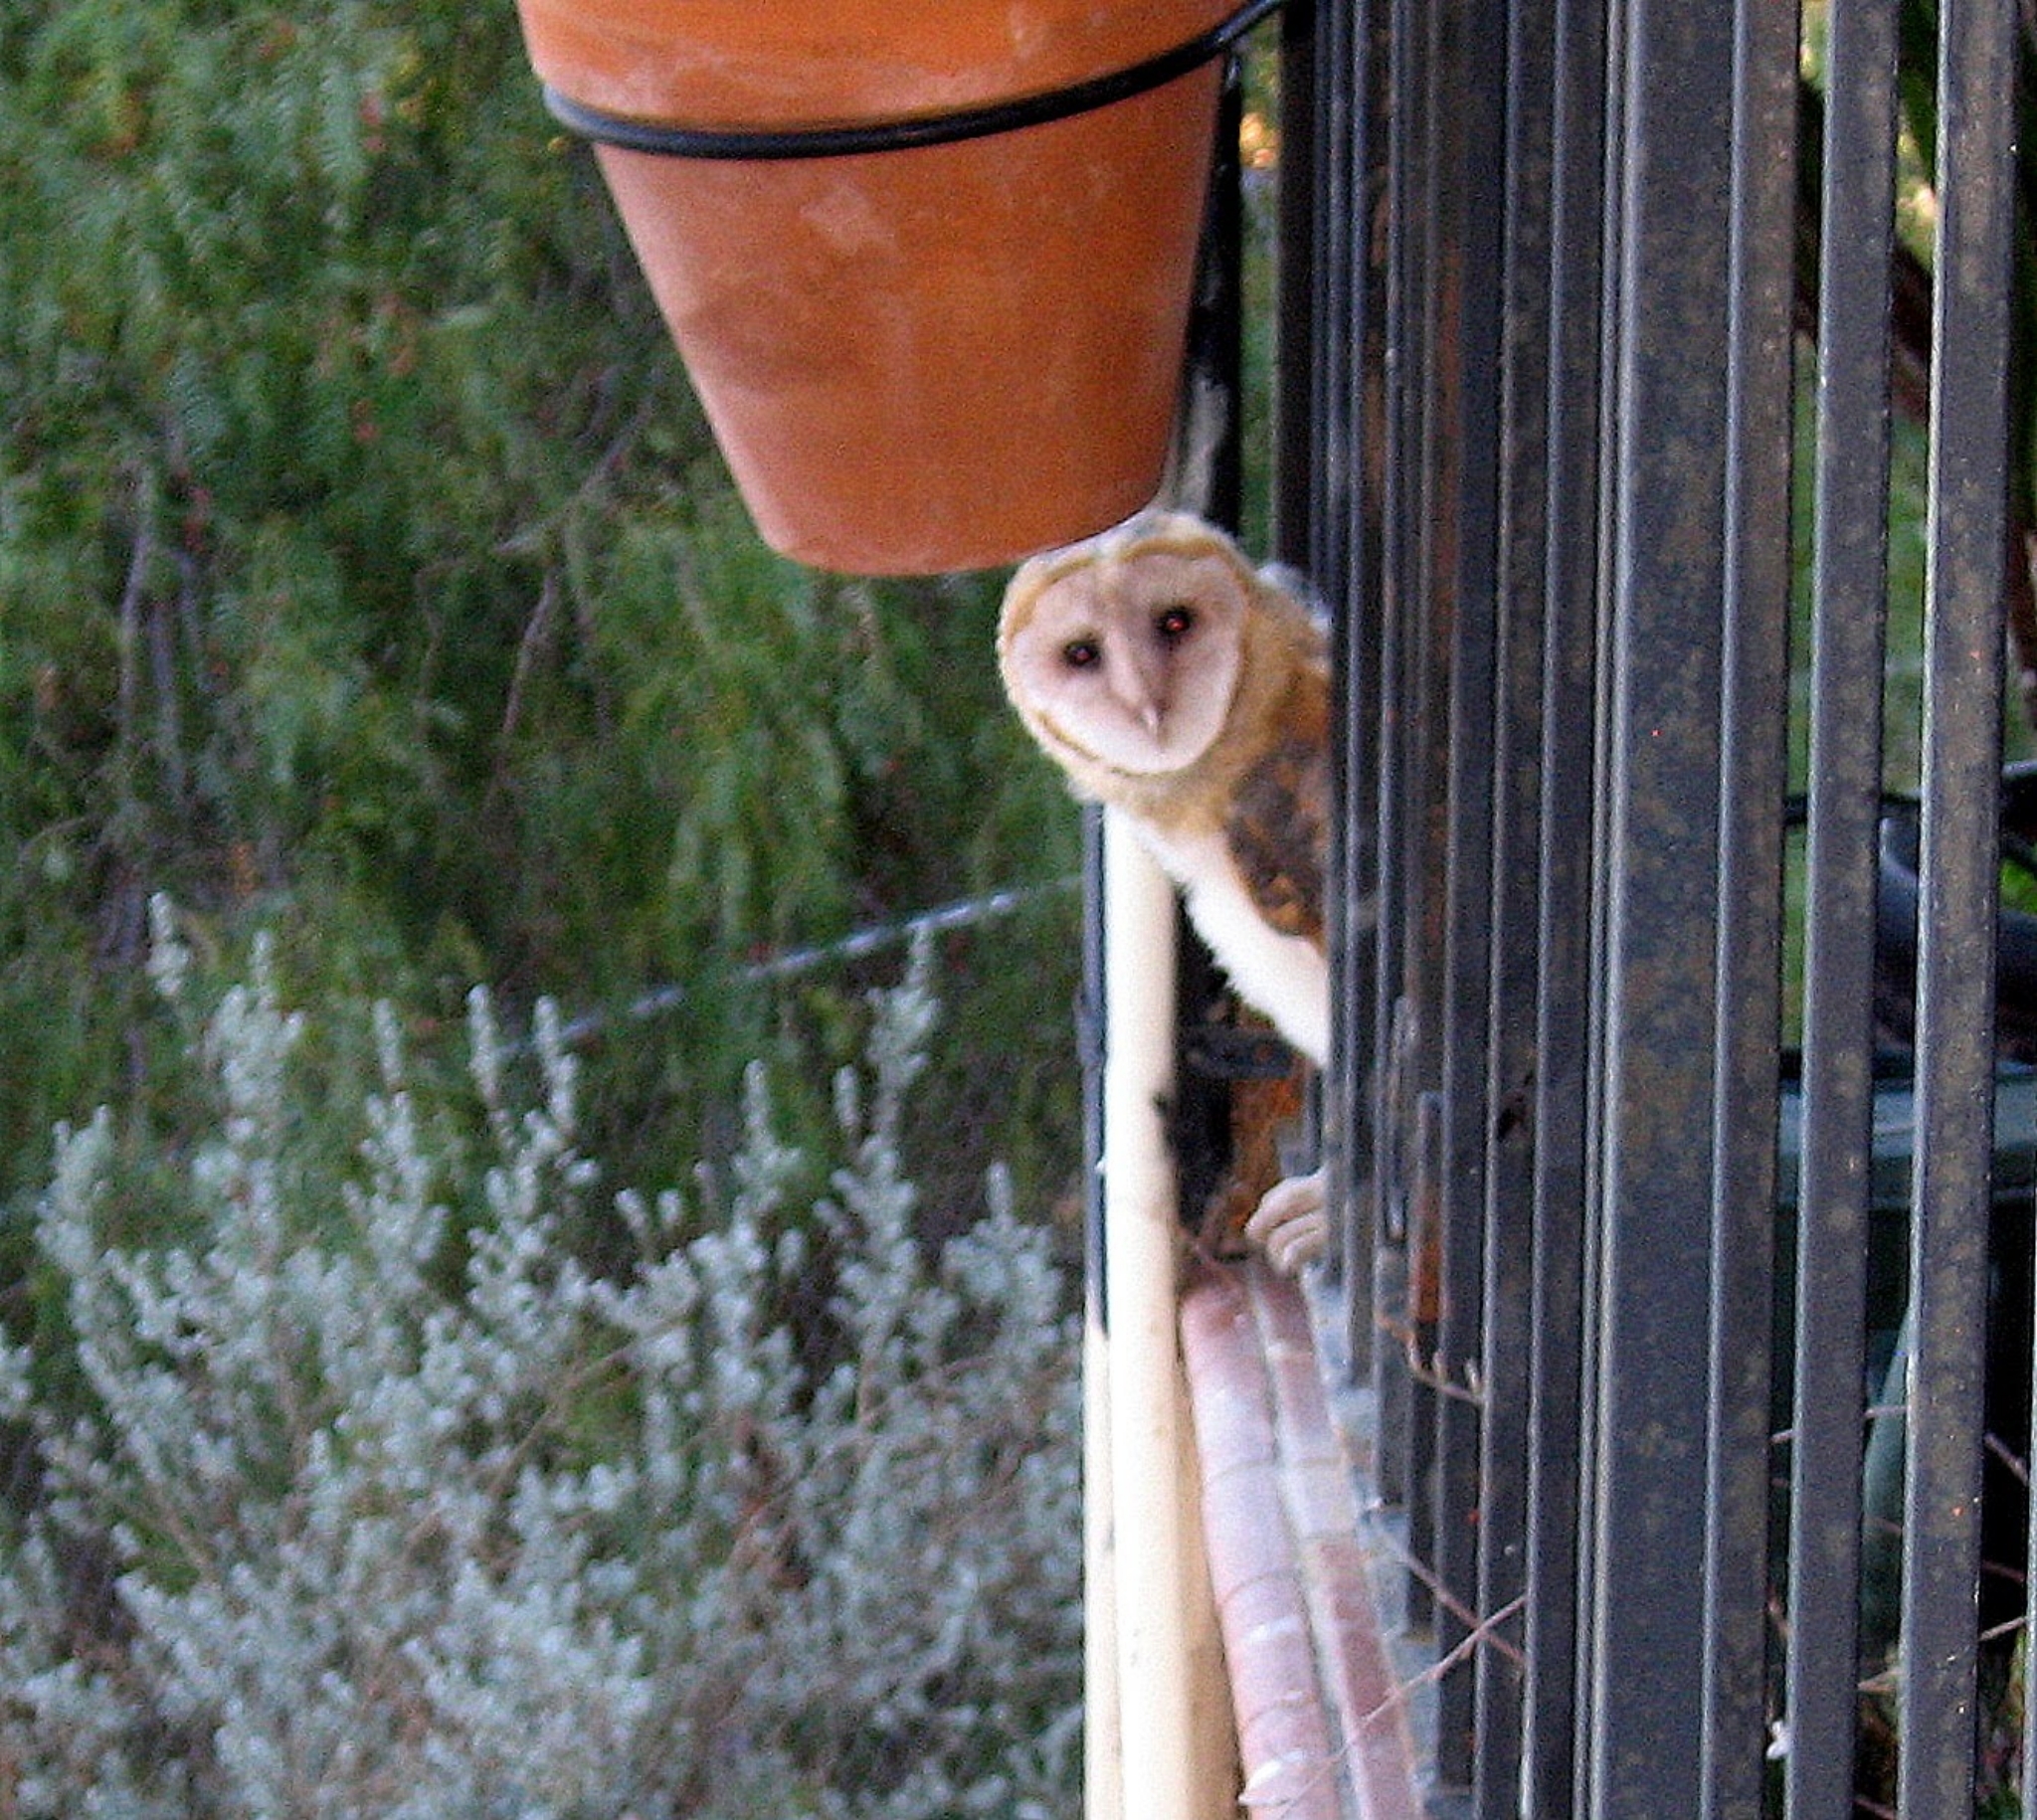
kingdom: Animalia
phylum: Chordata
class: Aves
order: Strigiformes
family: Tytonidae
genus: Tyto
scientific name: Tyto alba
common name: Barn owl
